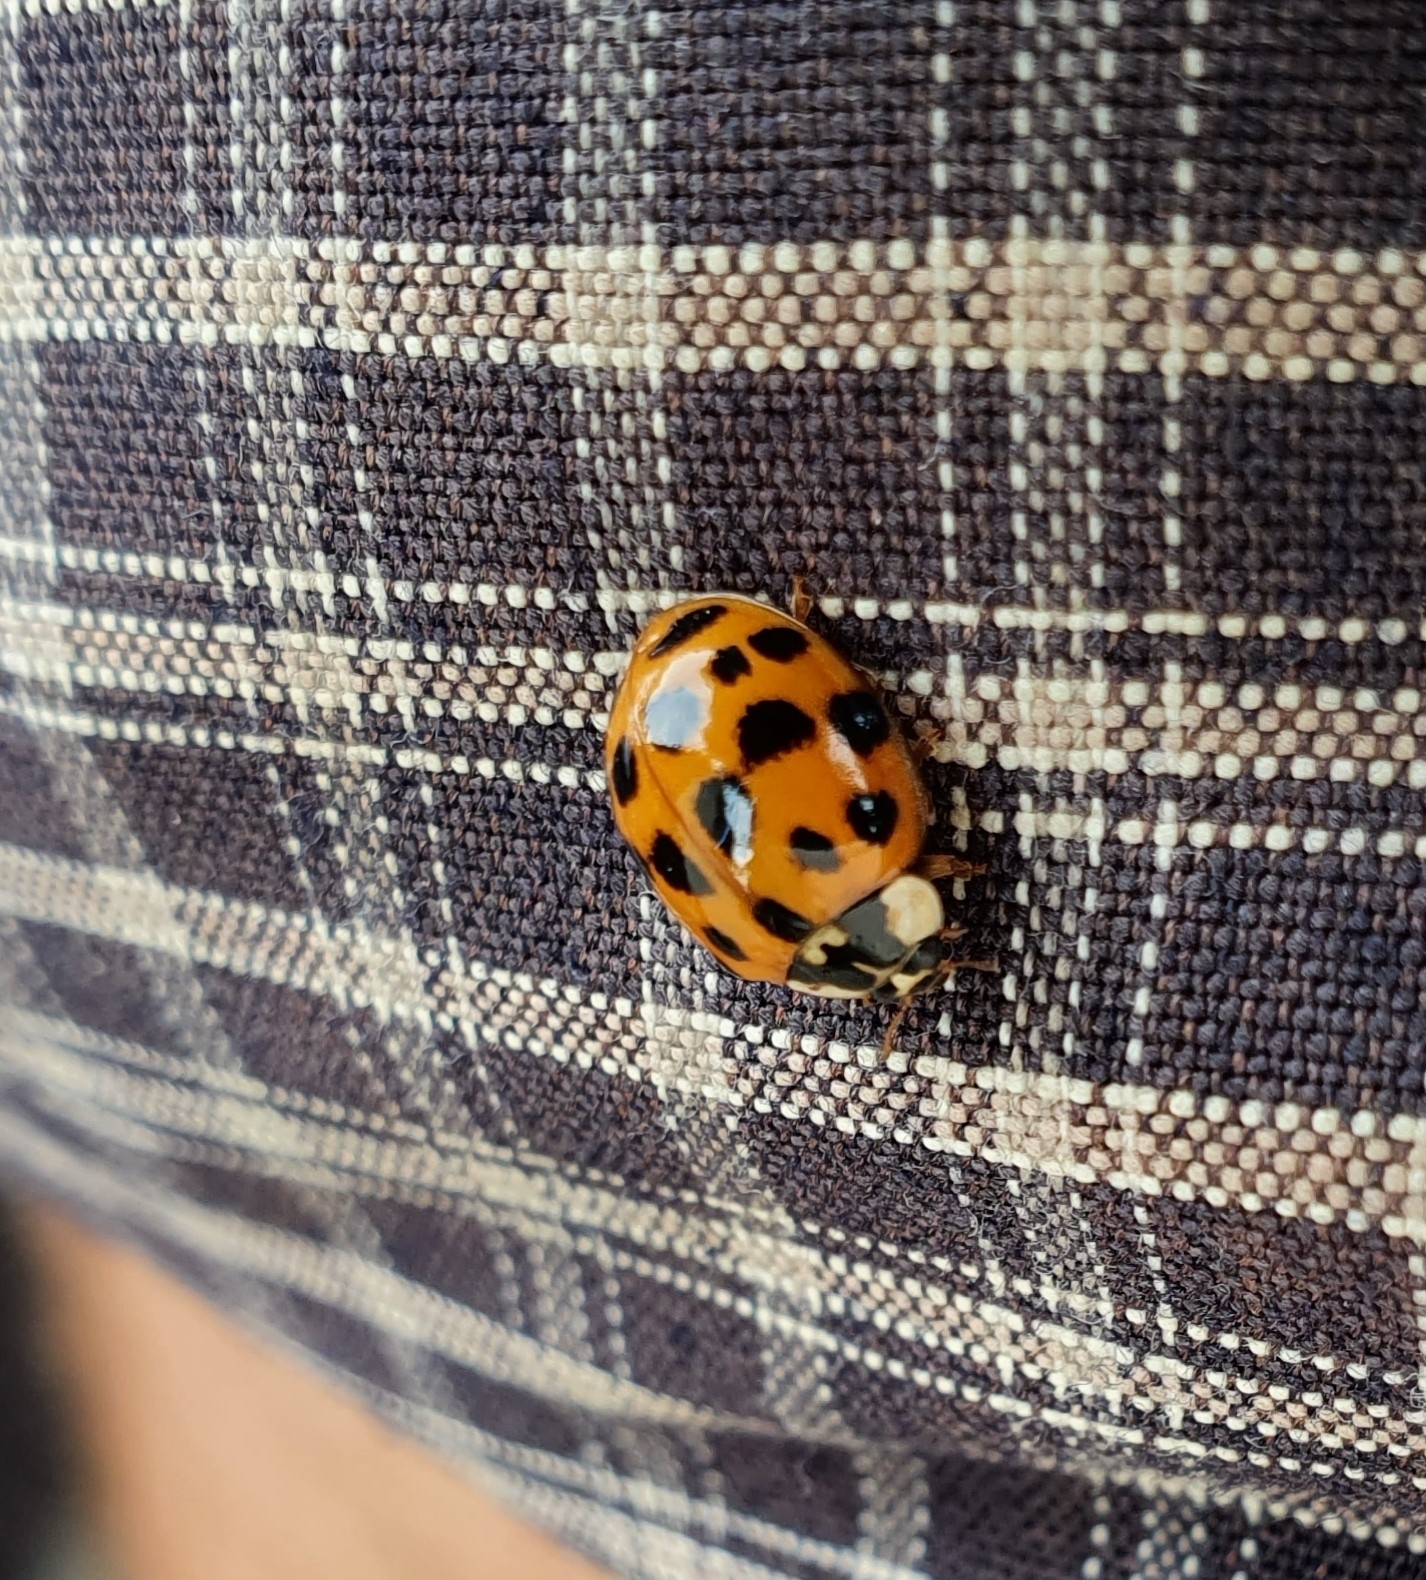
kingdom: Animalia
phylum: Arthropoda
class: Insecta
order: Coleoptera
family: Coccinellidae
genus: Harmonia
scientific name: Harmonia axyridis
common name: Harlequin ladybird
